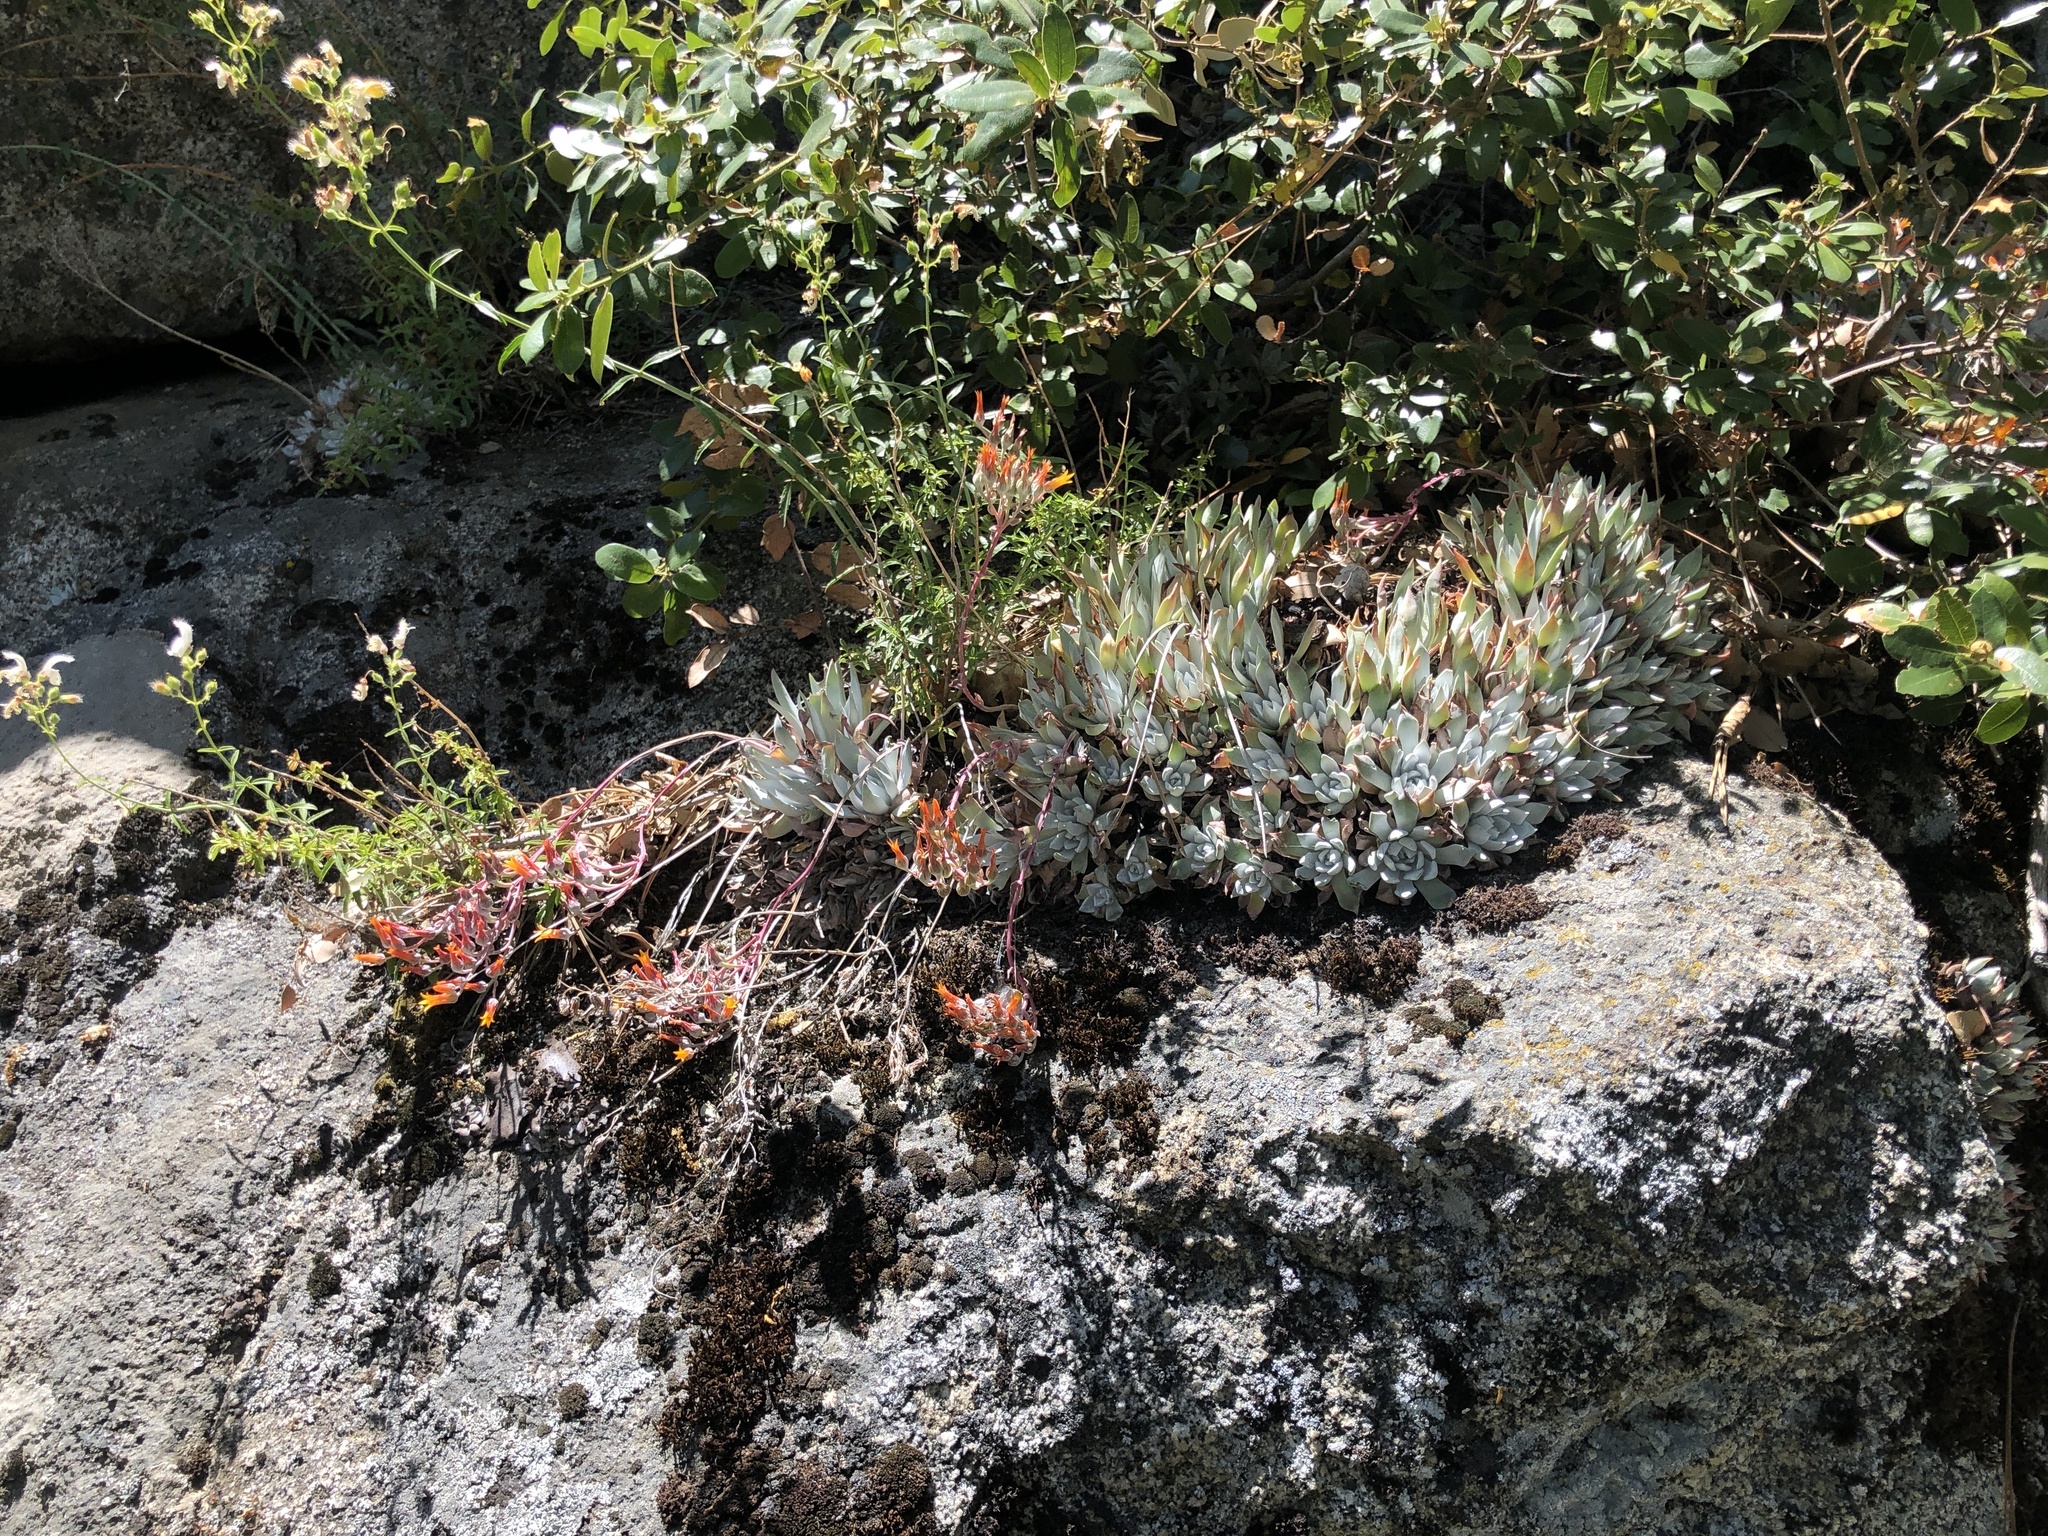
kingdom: Plantae
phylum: Tracheophyta
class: Magnoliopsida
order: Saxifragales
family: Crassulaceae
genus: Dudleya
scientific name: Dudleya cymosa
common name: Canyon dudleya
